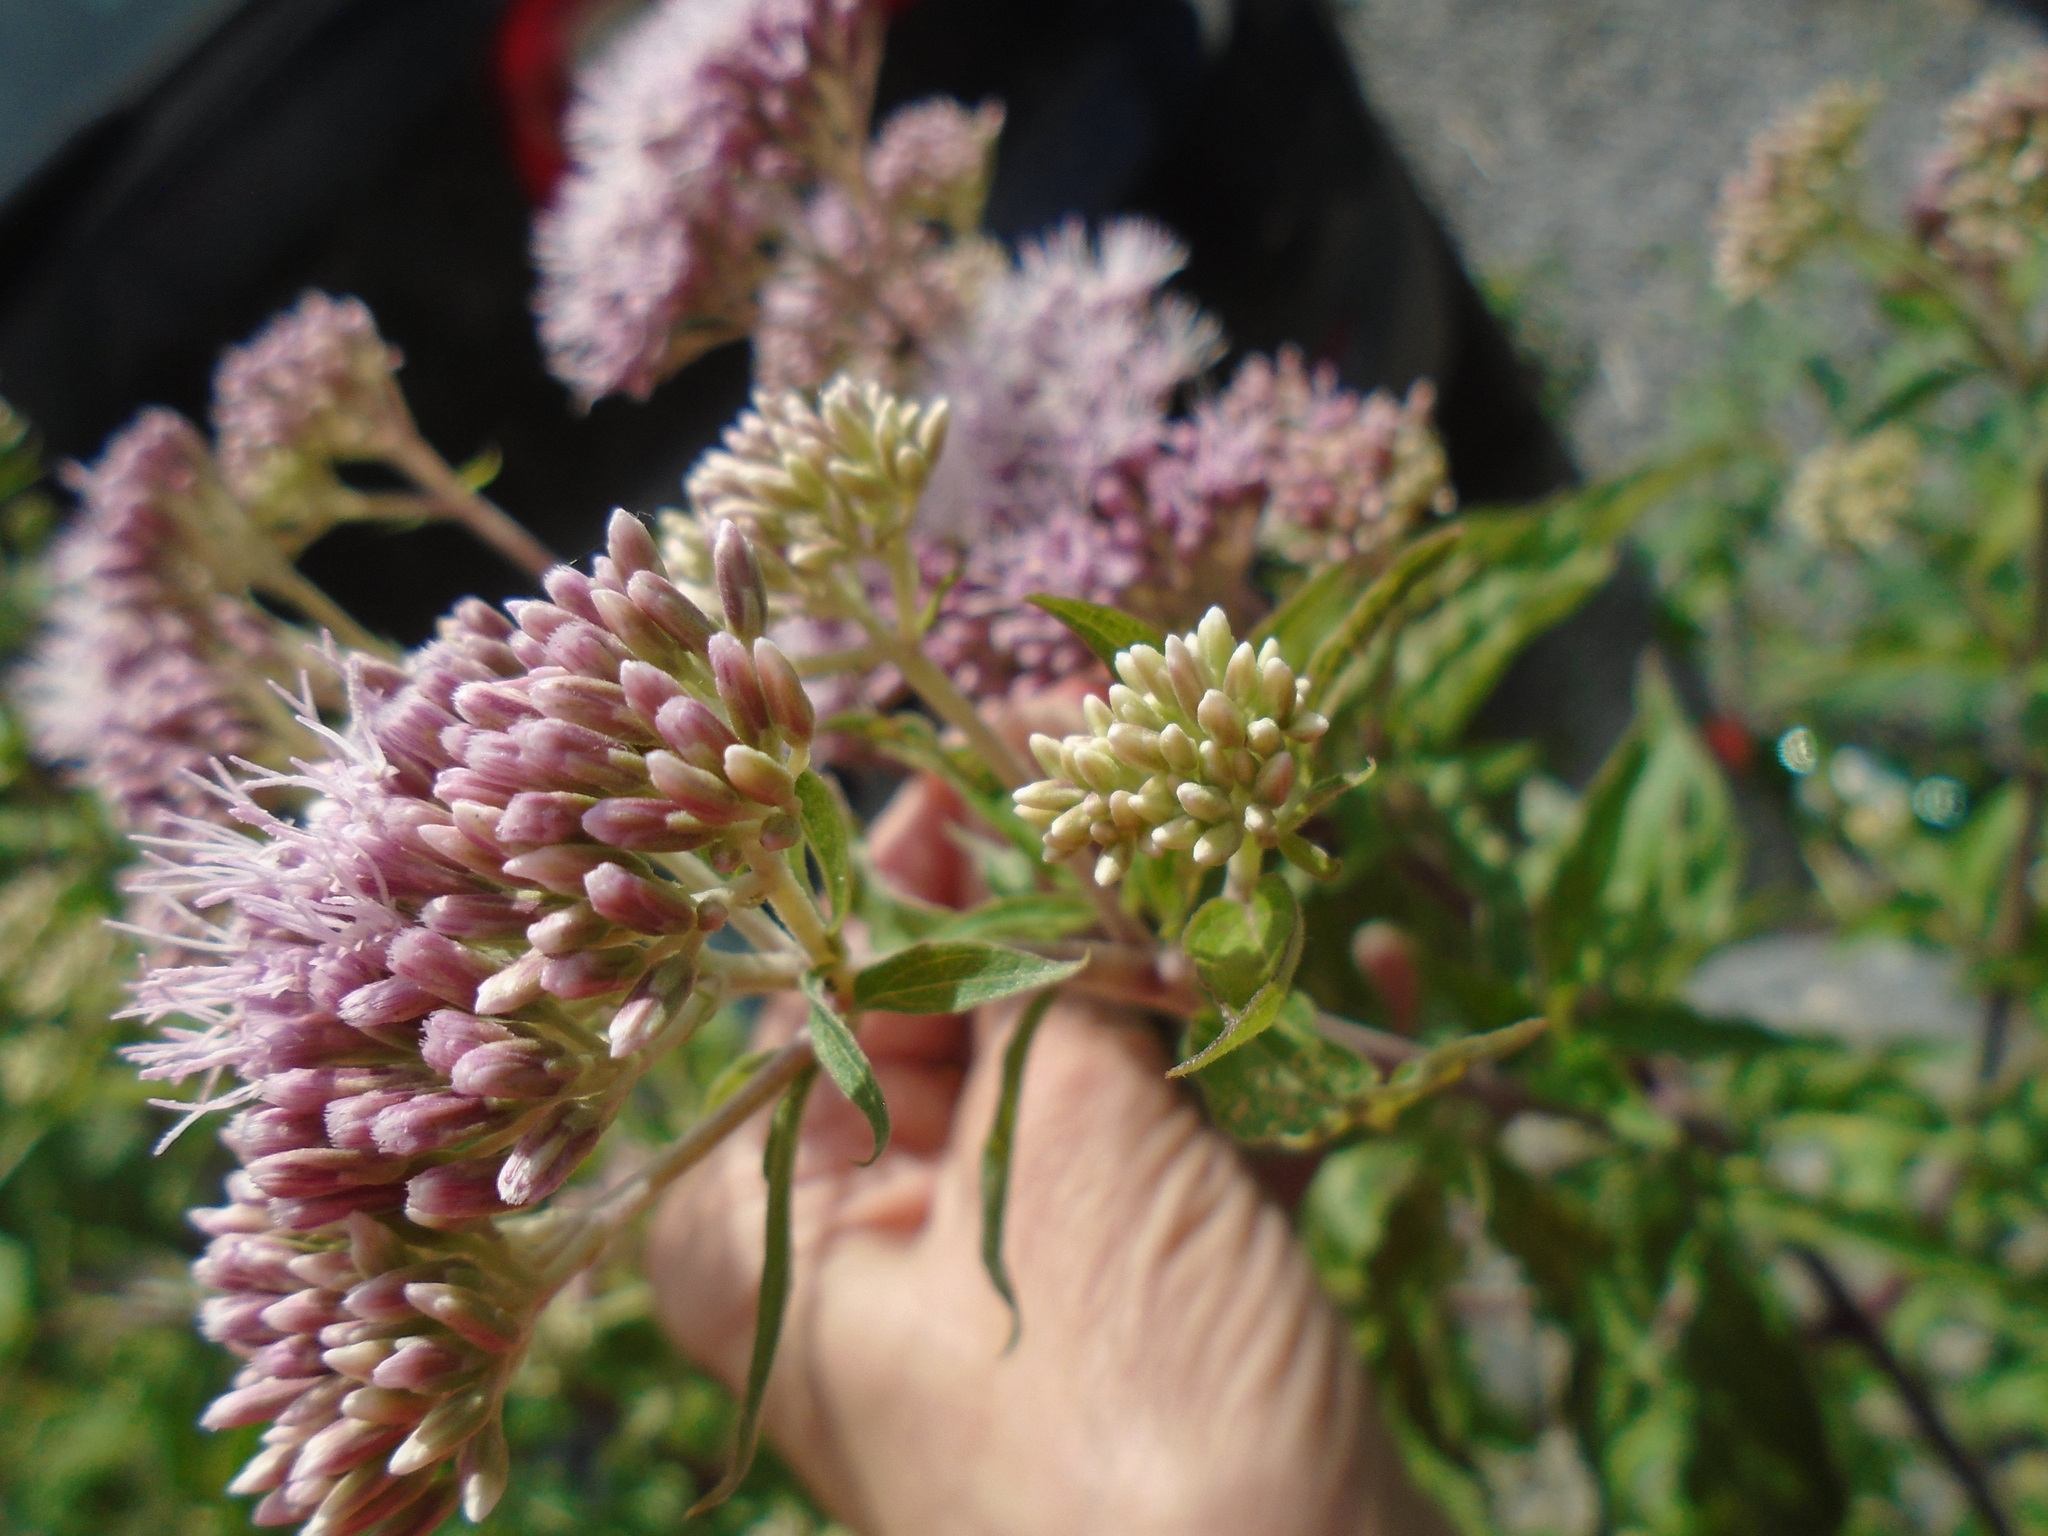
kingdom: Plantae
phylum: Tracheophyta
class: Magnoliopsida
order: Asterales
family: Asteraceae
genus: Eupatorium
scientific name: Eupatorium cannabinum
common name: Hemp-agrimony
